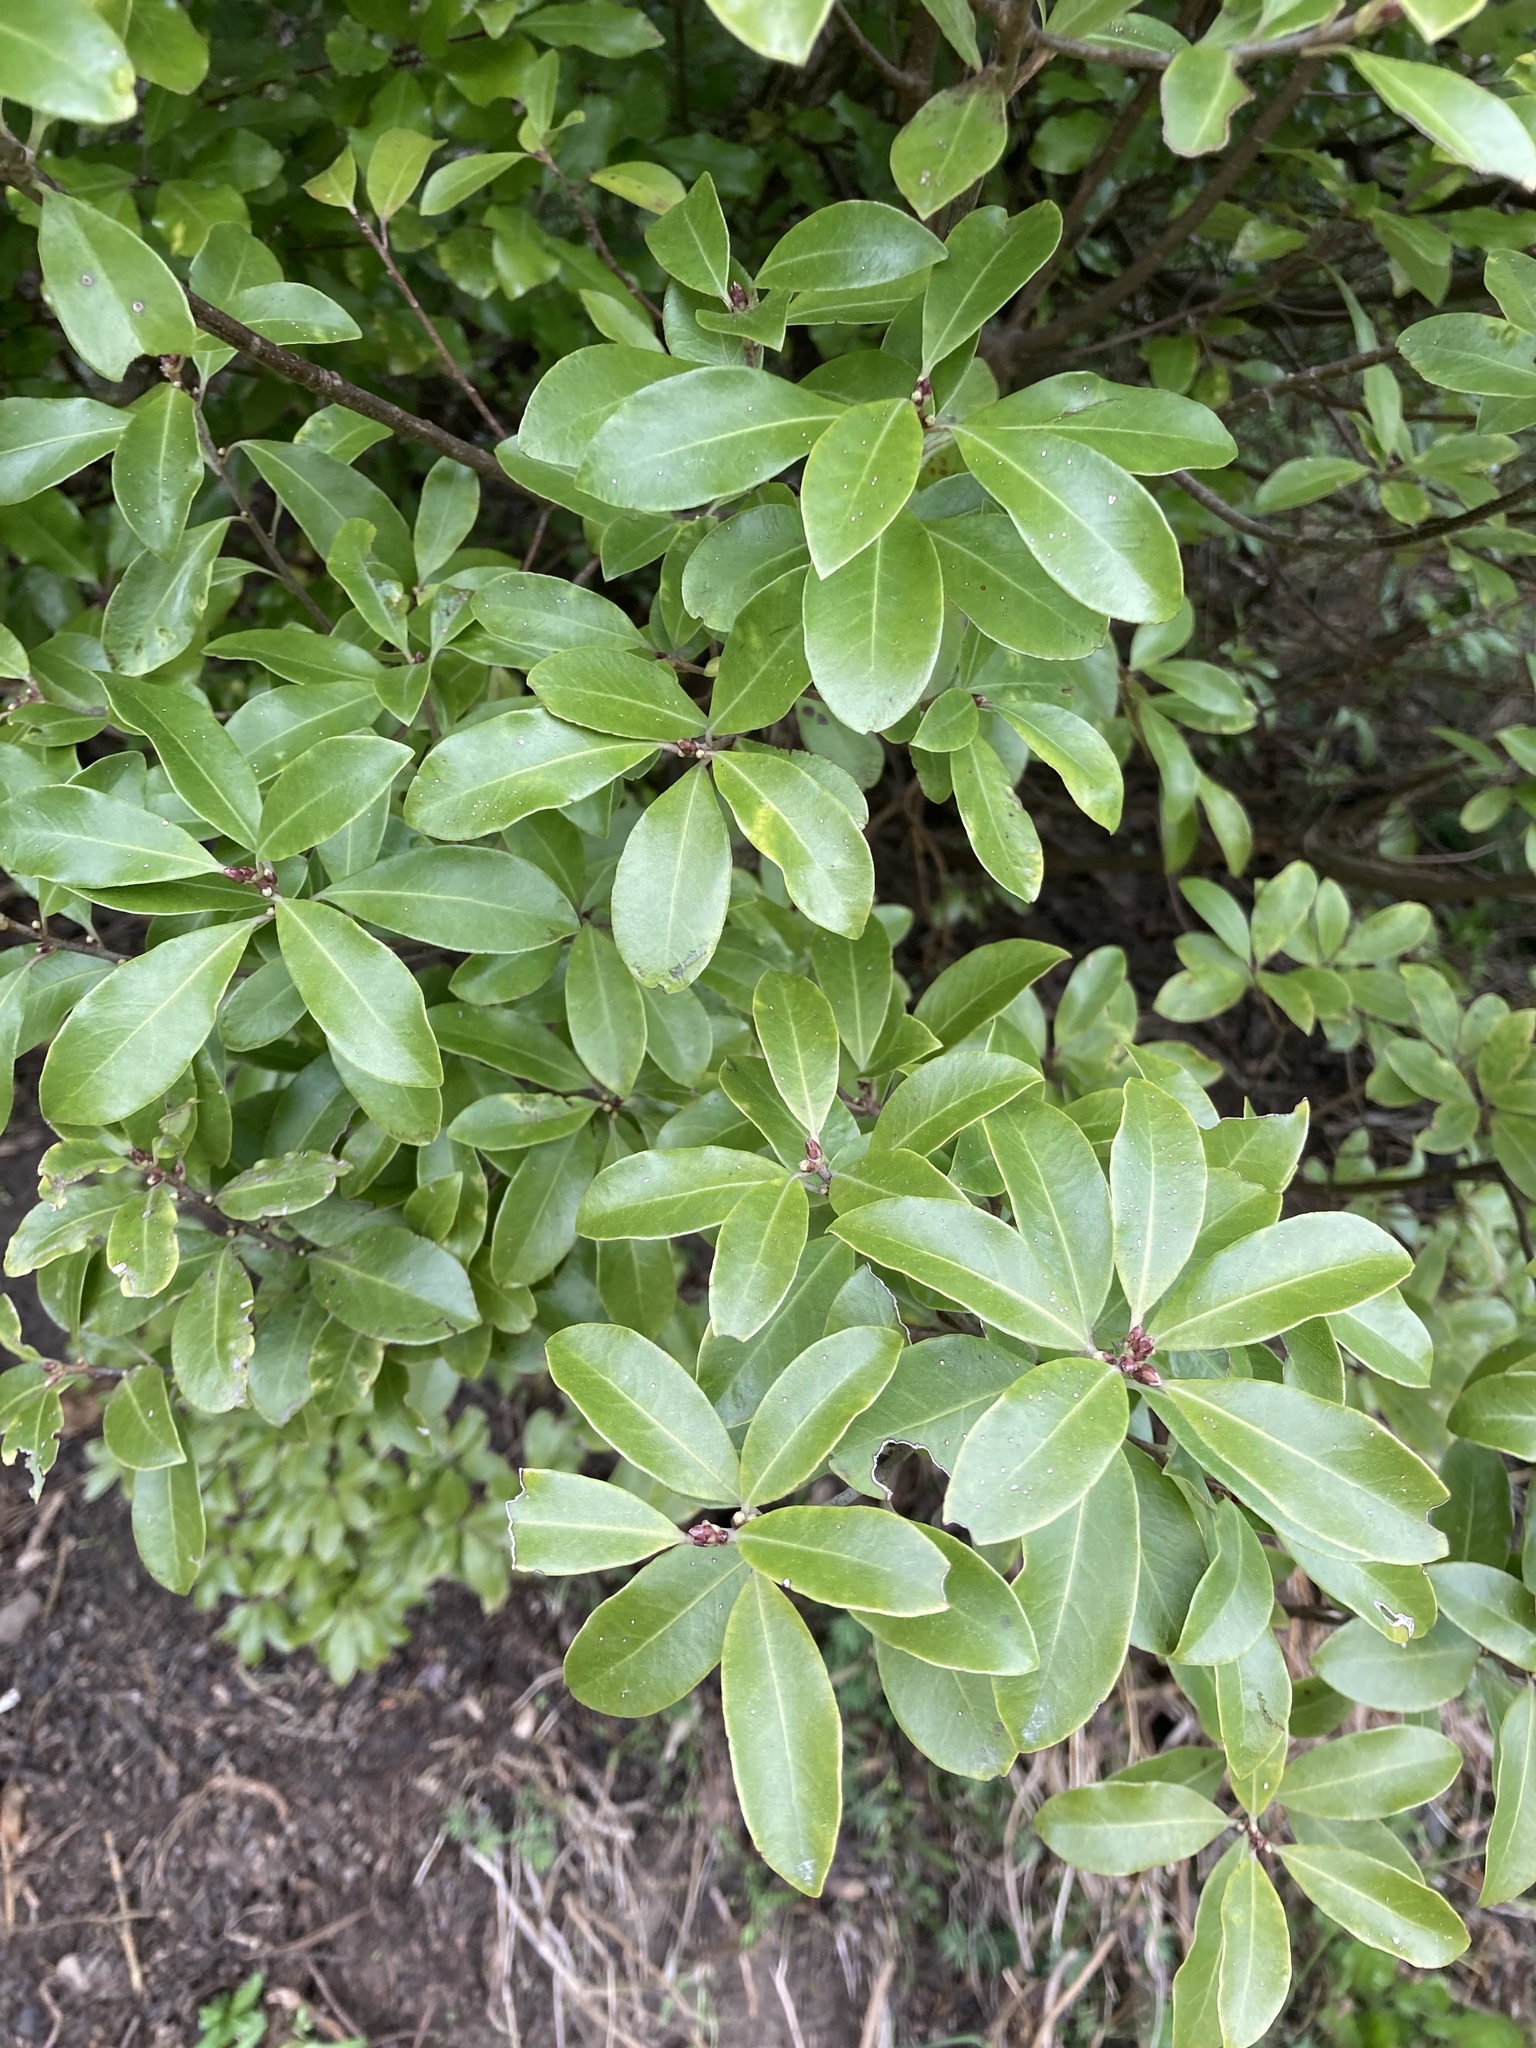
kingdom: Plantae
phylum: Tracheophyta
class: Magnoliopsida
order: Apiales
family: Pittosporaceae
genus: Pittosporum
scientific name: Pittosporum tenuifolium
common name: Kohuhu
